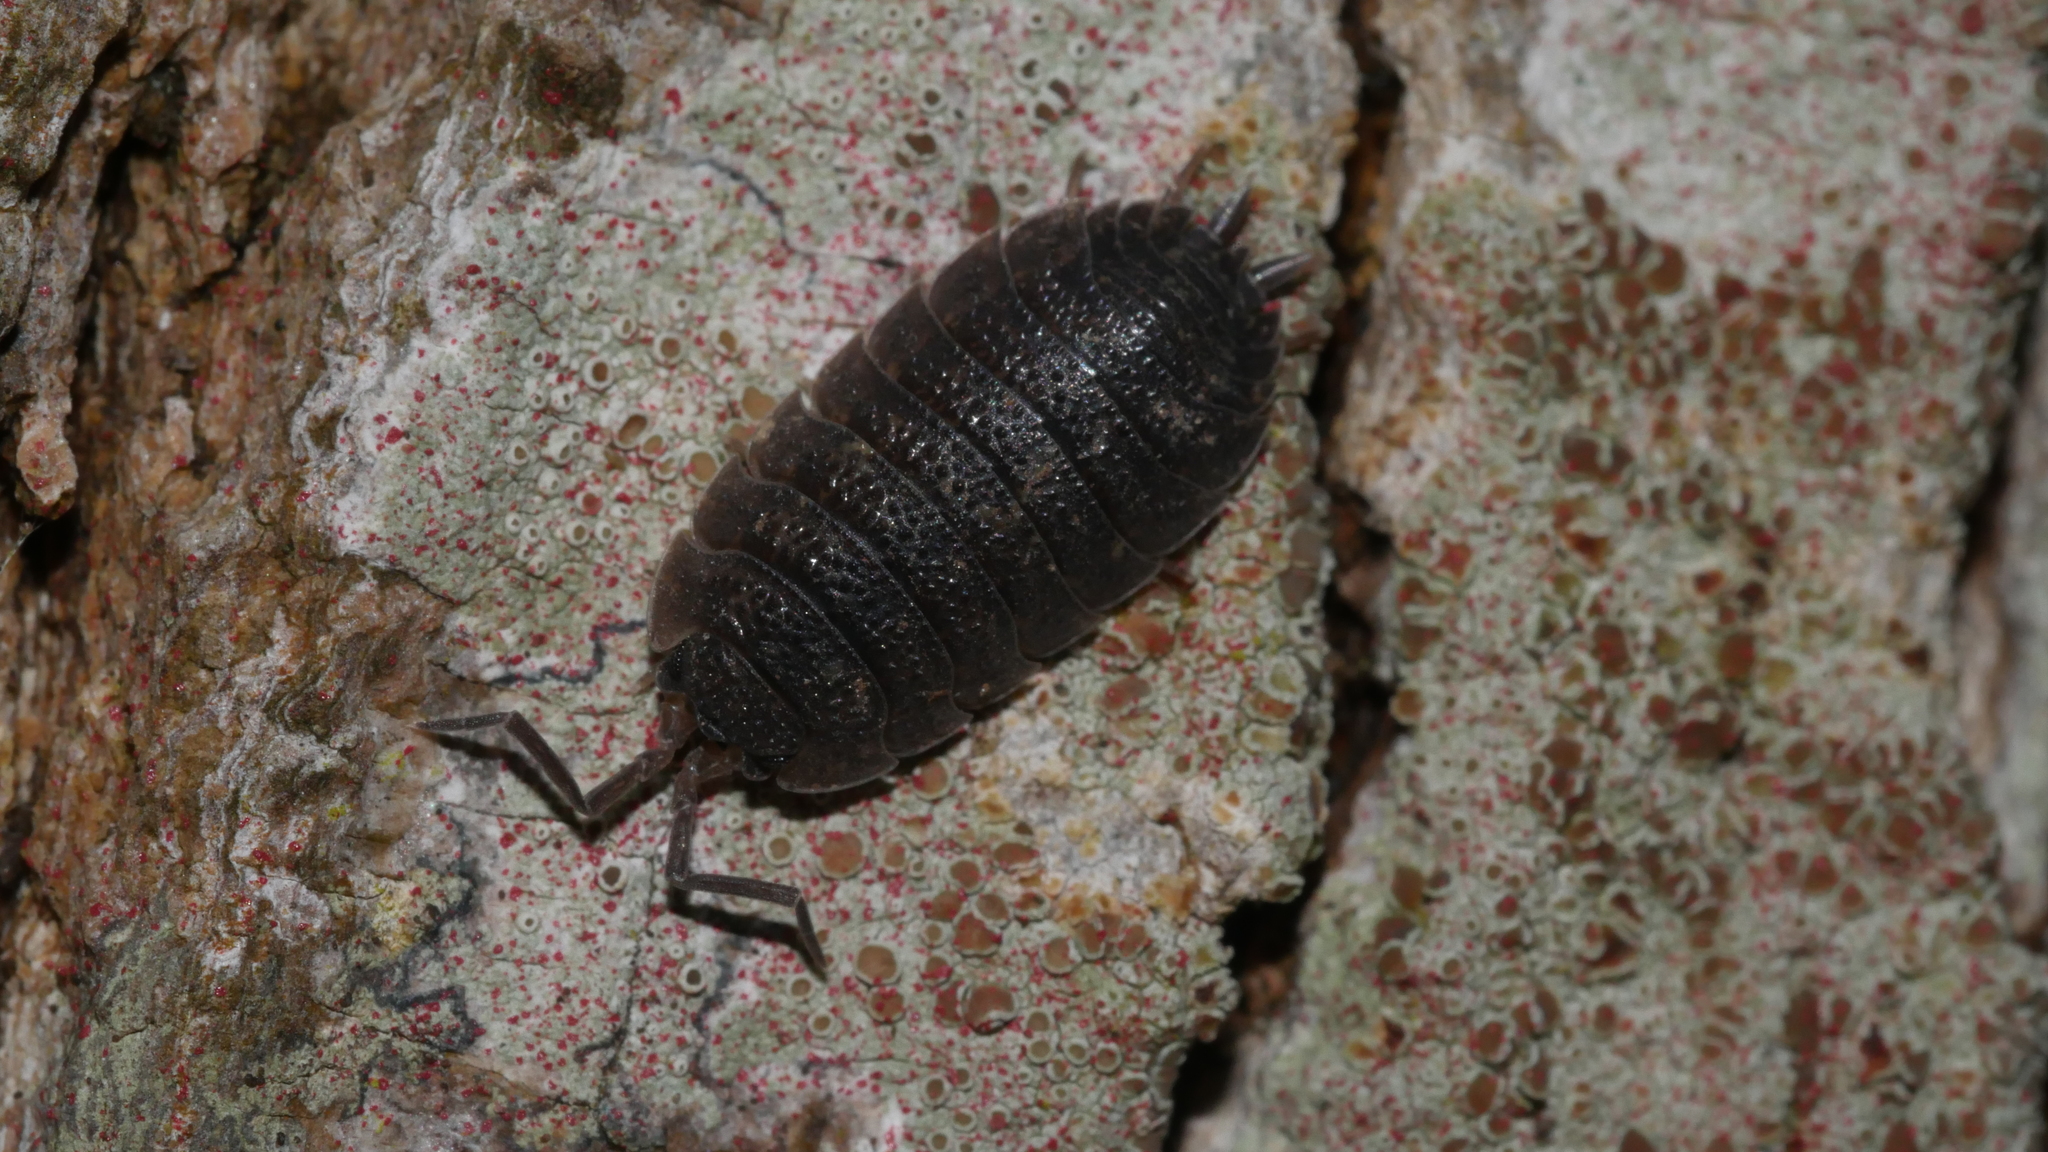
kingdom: Animalia
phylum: Arthropoda
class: Malacostraca
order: Isopoda
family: Porcellionidae
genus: Porcellio
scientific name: Porcellio scaber
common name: Common rough woodlouse
